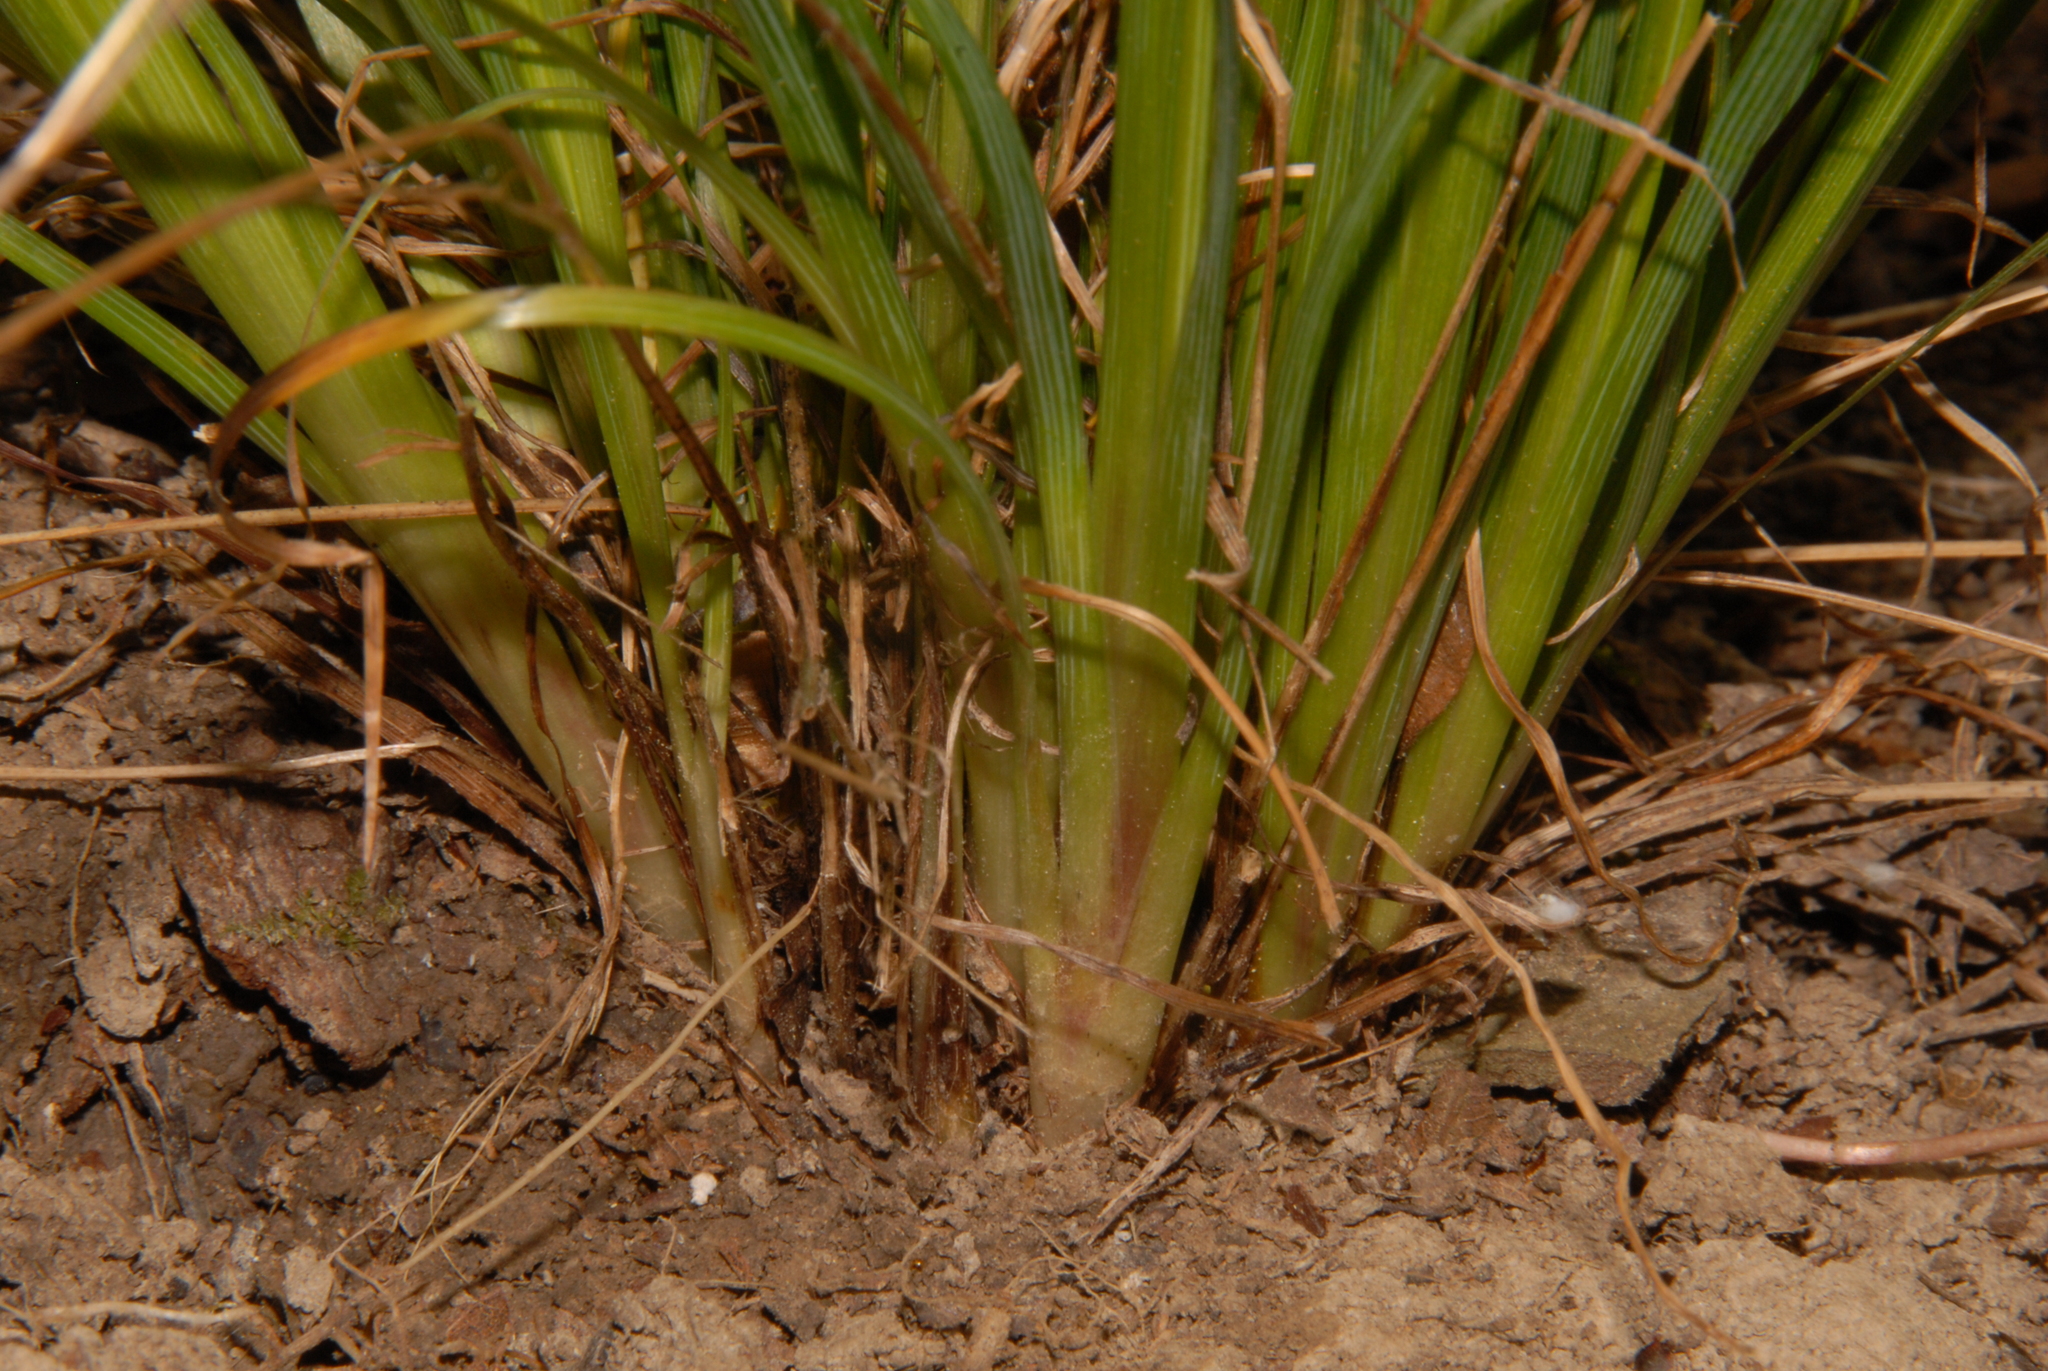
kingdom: Plantae
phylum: Tracheophyta
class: Liliopsida
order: Asparagales
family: Iridaceae
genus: Sisyrinchium
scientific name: Sisyrinchium angustifolium
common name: Narrow-leaf blue-eyed-grass
